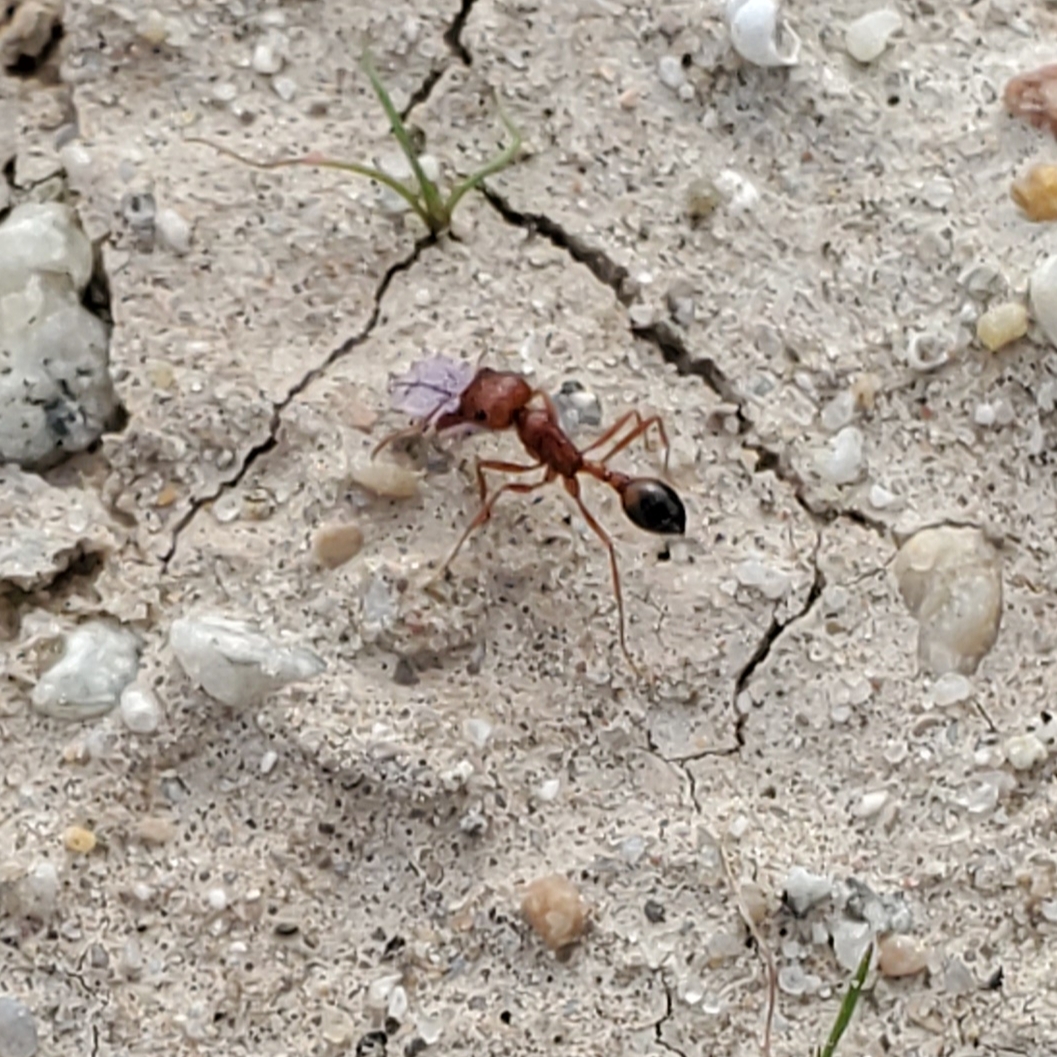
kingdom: Animalia
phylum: Arthropoda
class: Insecta
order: Hymenoptera
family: Formicidae
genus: Pogonomyrmex
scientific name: Pogonomyrmex californicus
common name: California harvester ant
